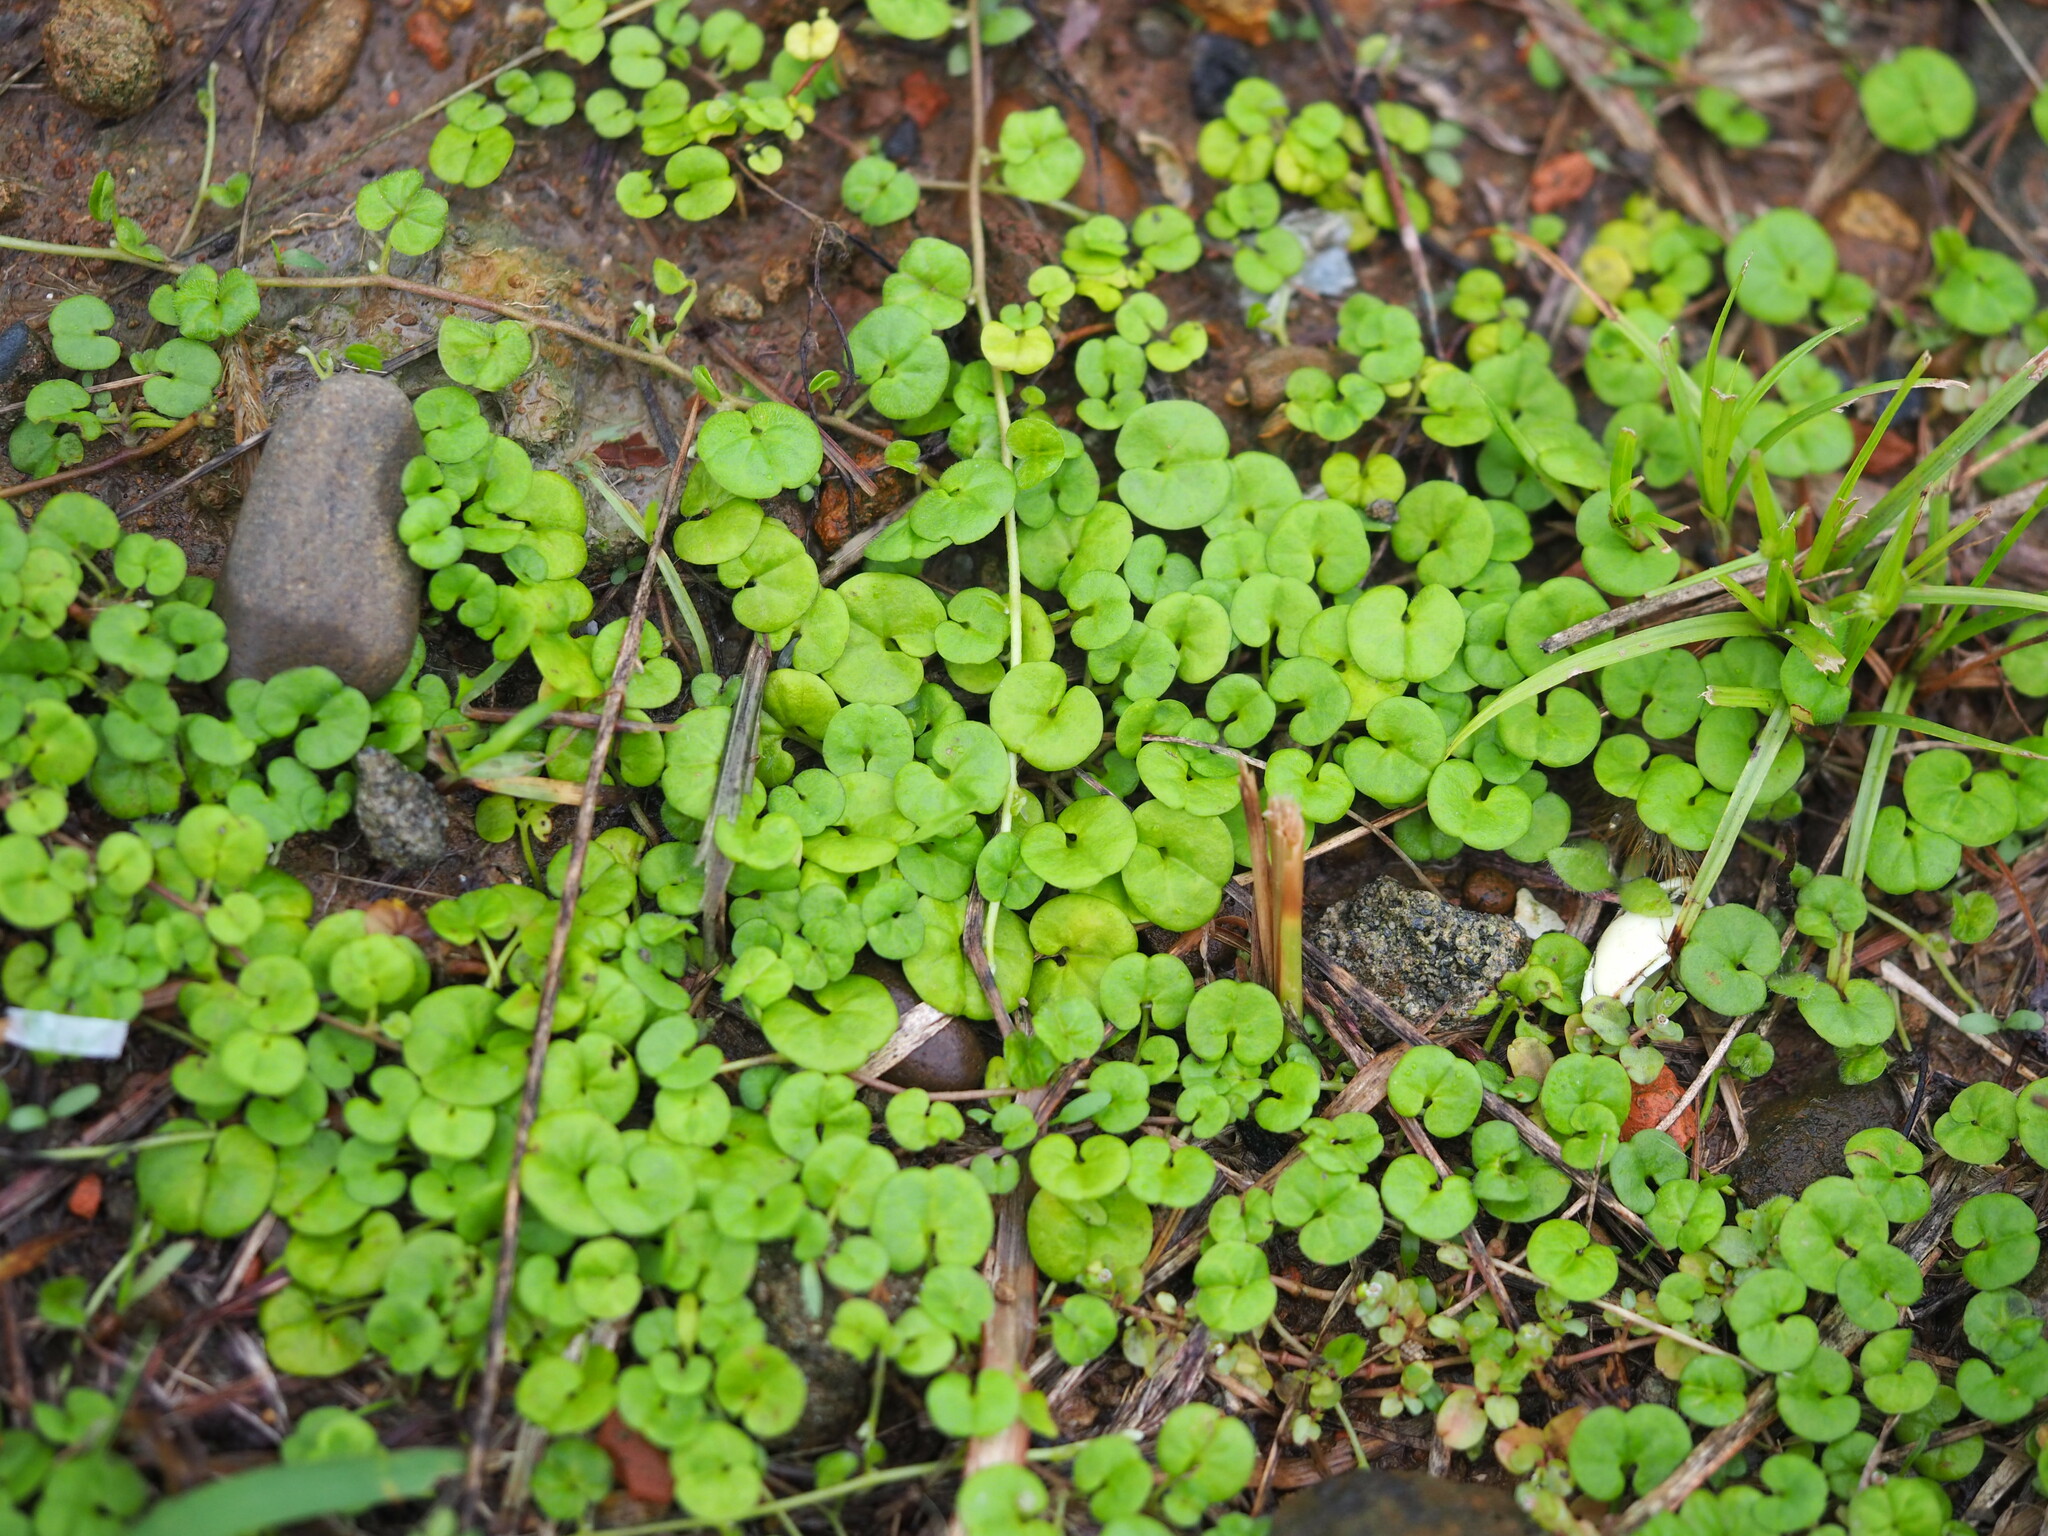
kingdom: Plantae
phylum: Tracheophyta
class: Magnoliopsida
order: Solanales
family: Convolvulaceae
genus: Dichondra
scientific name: Dichondra micrantha
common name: Kidneyweed
